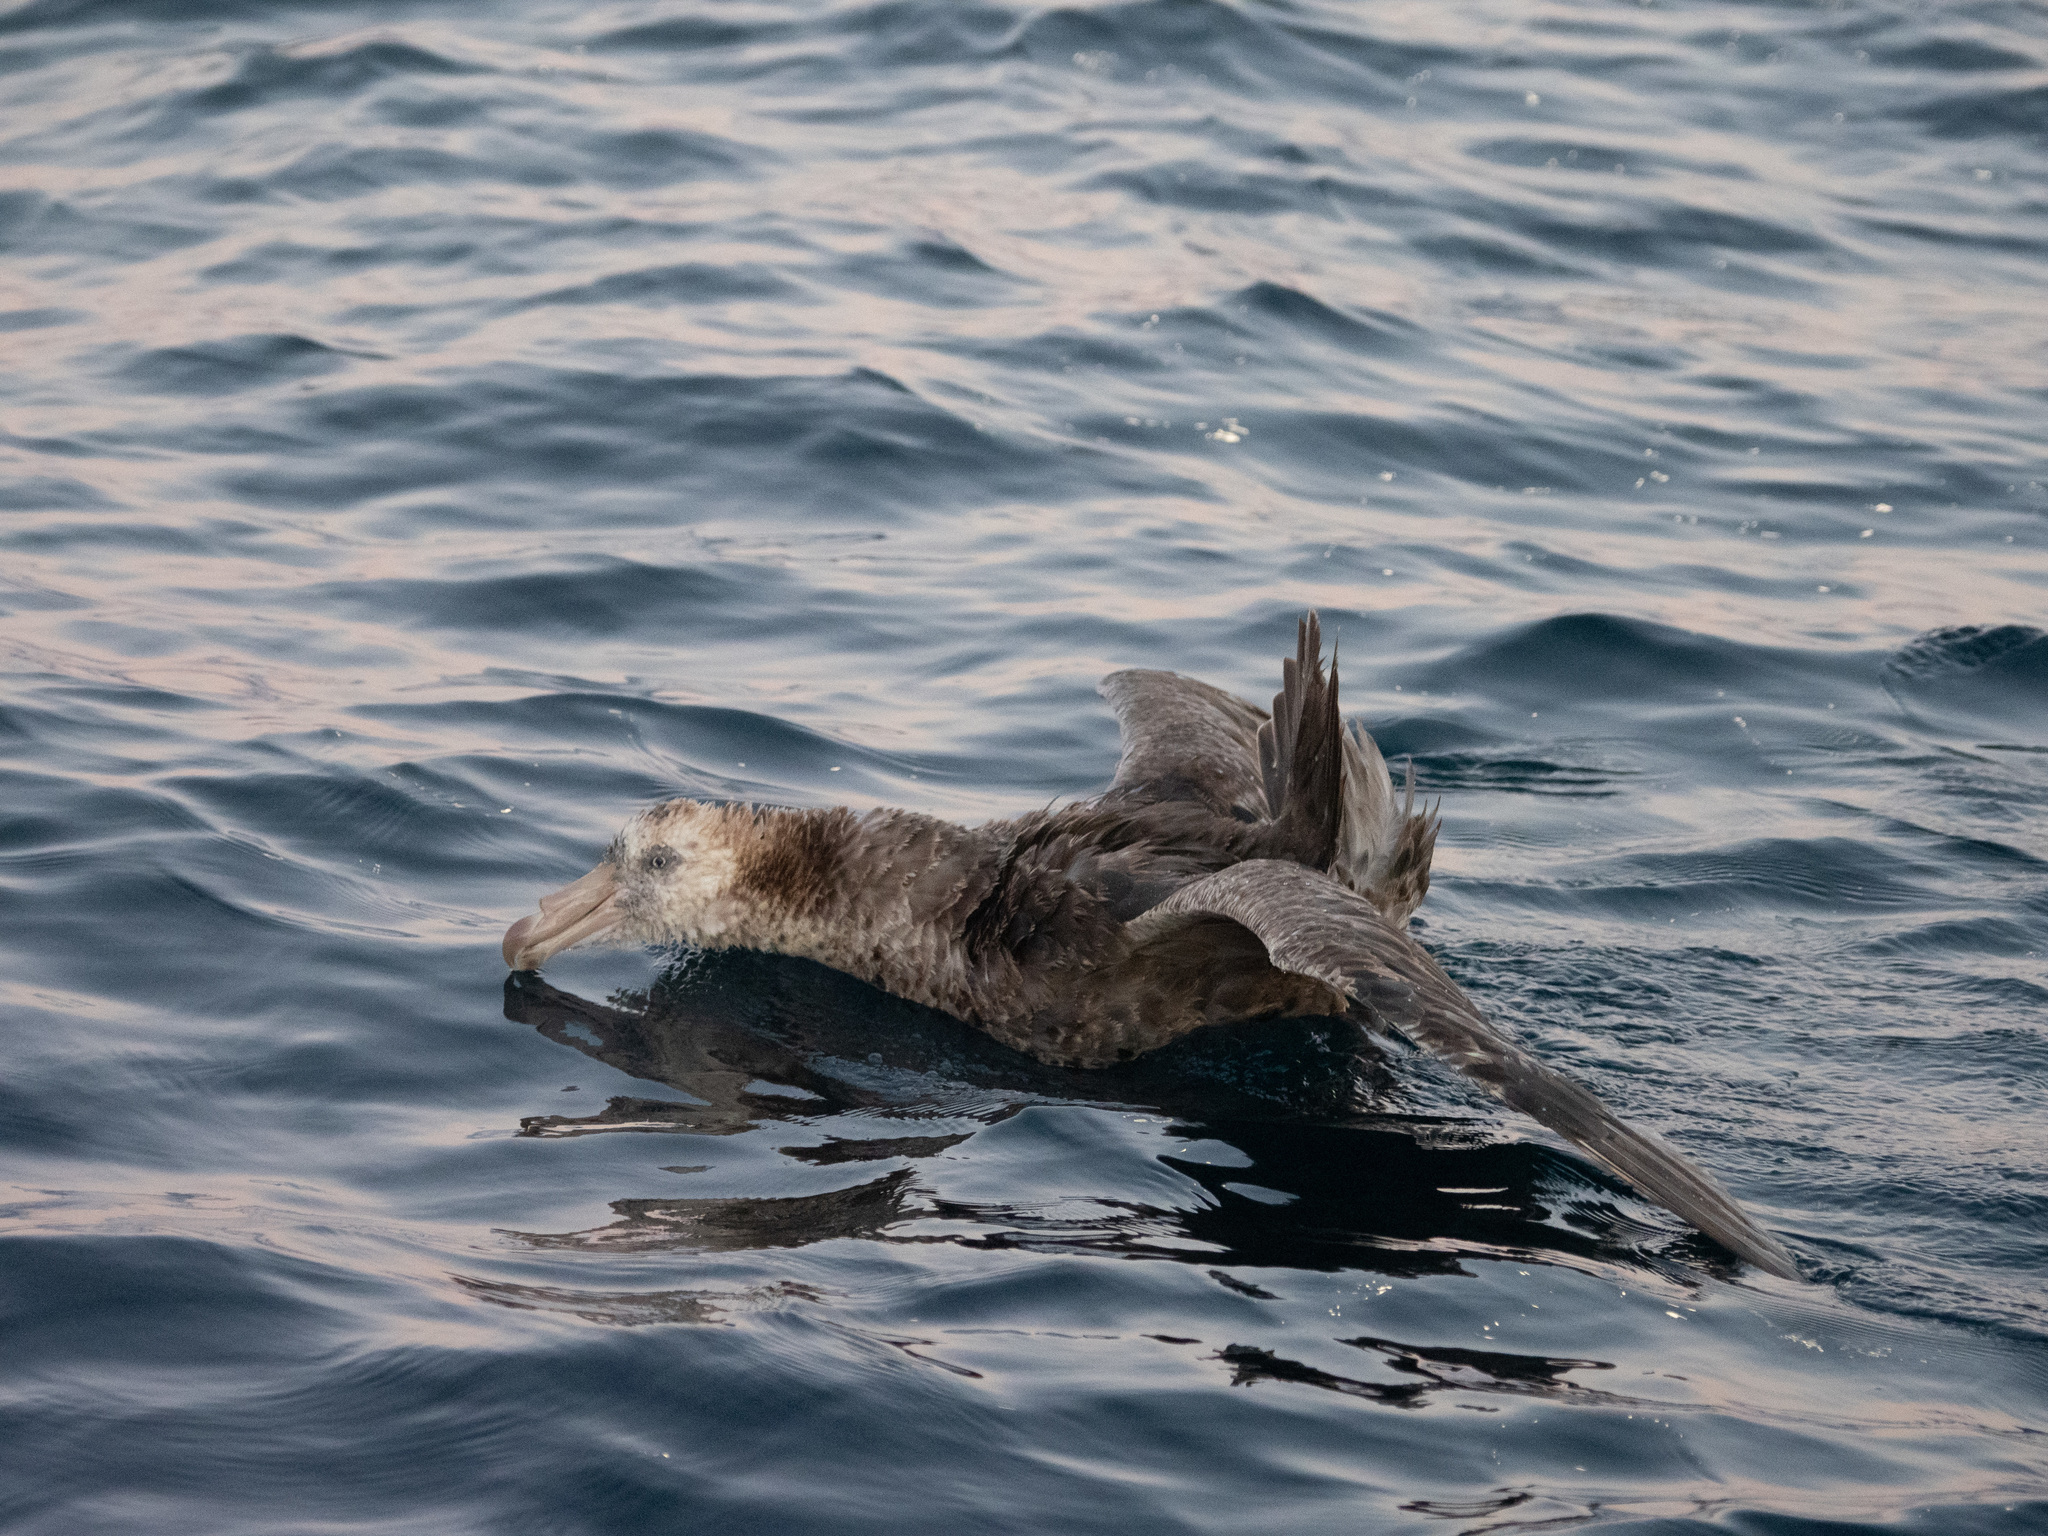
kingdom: Animalia
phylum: Chordata
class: Aves
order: Procellariiformes
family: Procellariidae
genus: Macronectes
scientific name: Macronectes halli
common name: Northern giant petrel
